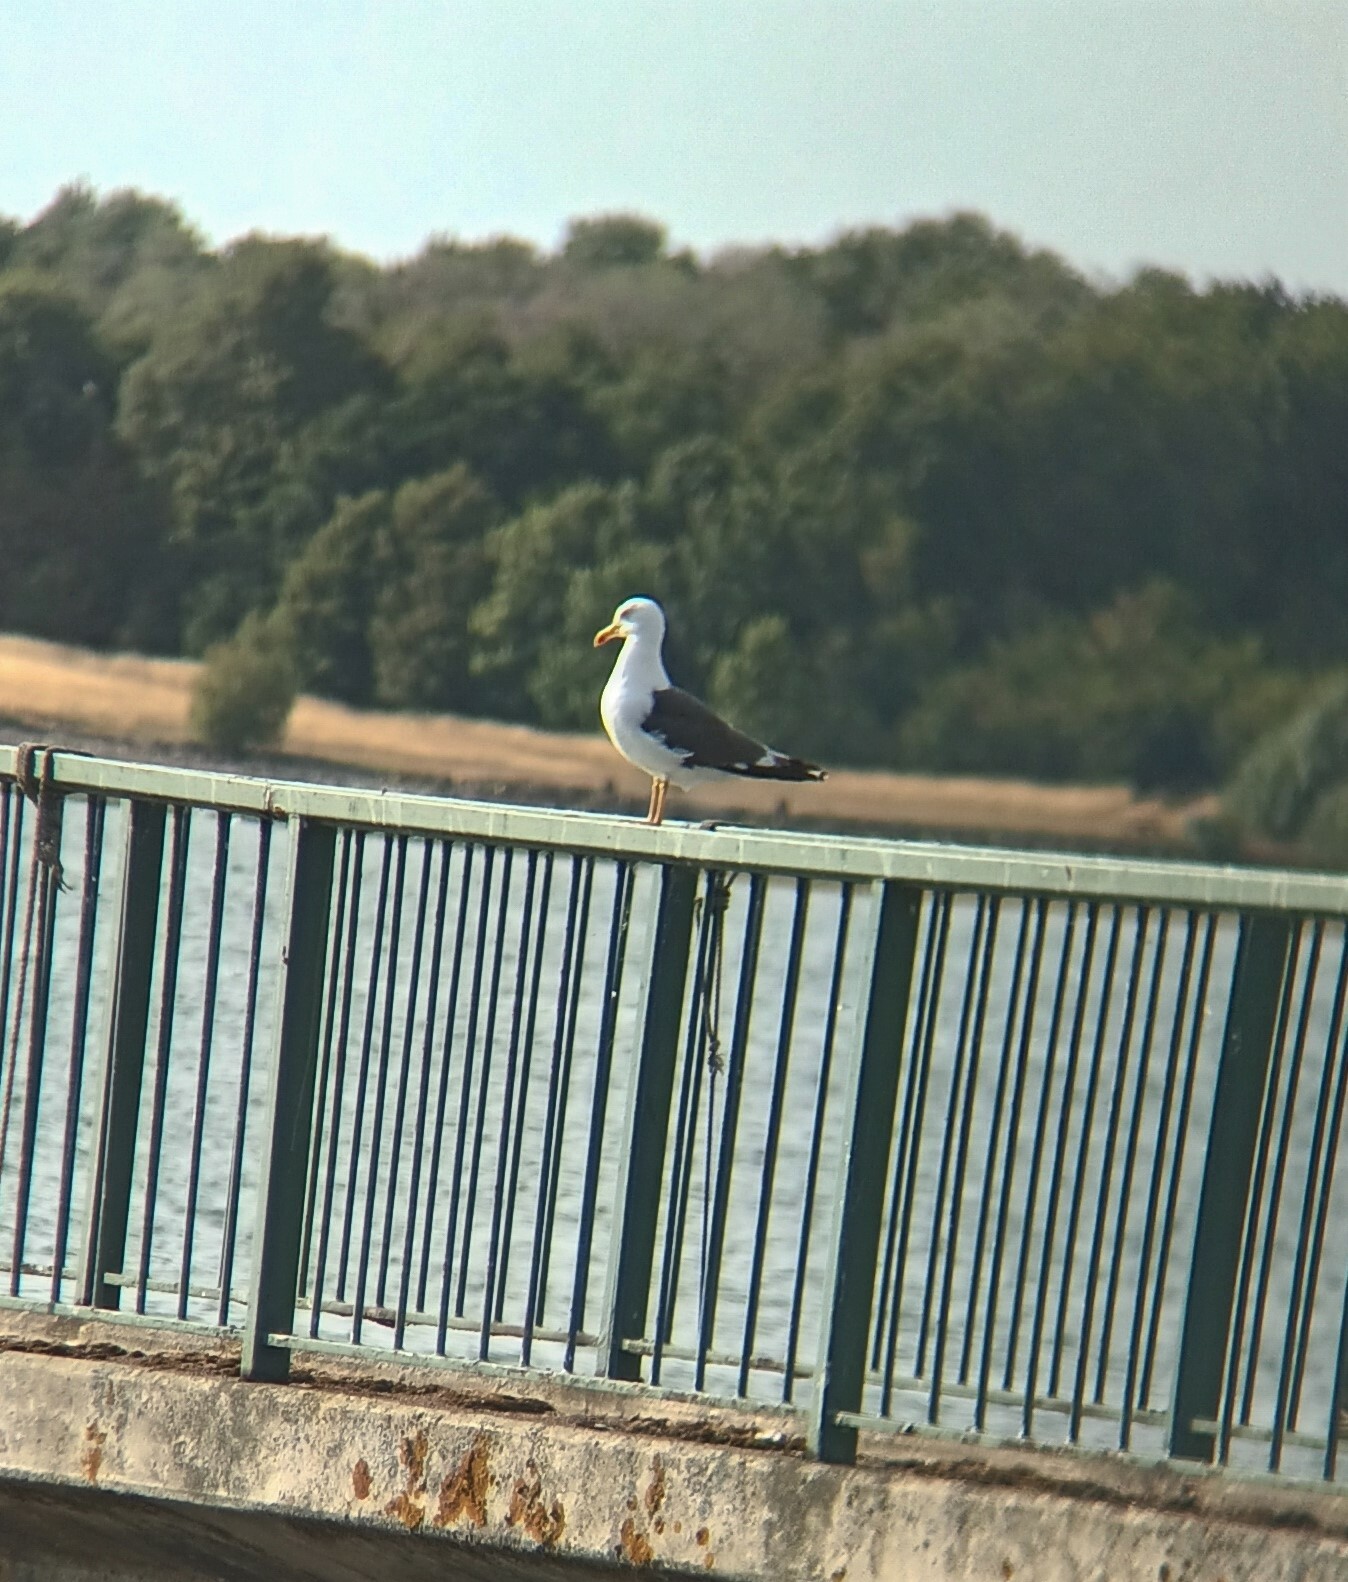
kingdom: Animalia
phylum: Chordata
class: Aves
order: Charadriiformes
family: Laridae
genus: Larus
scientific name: Larus fuscus
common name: Lesser black-backed gull
